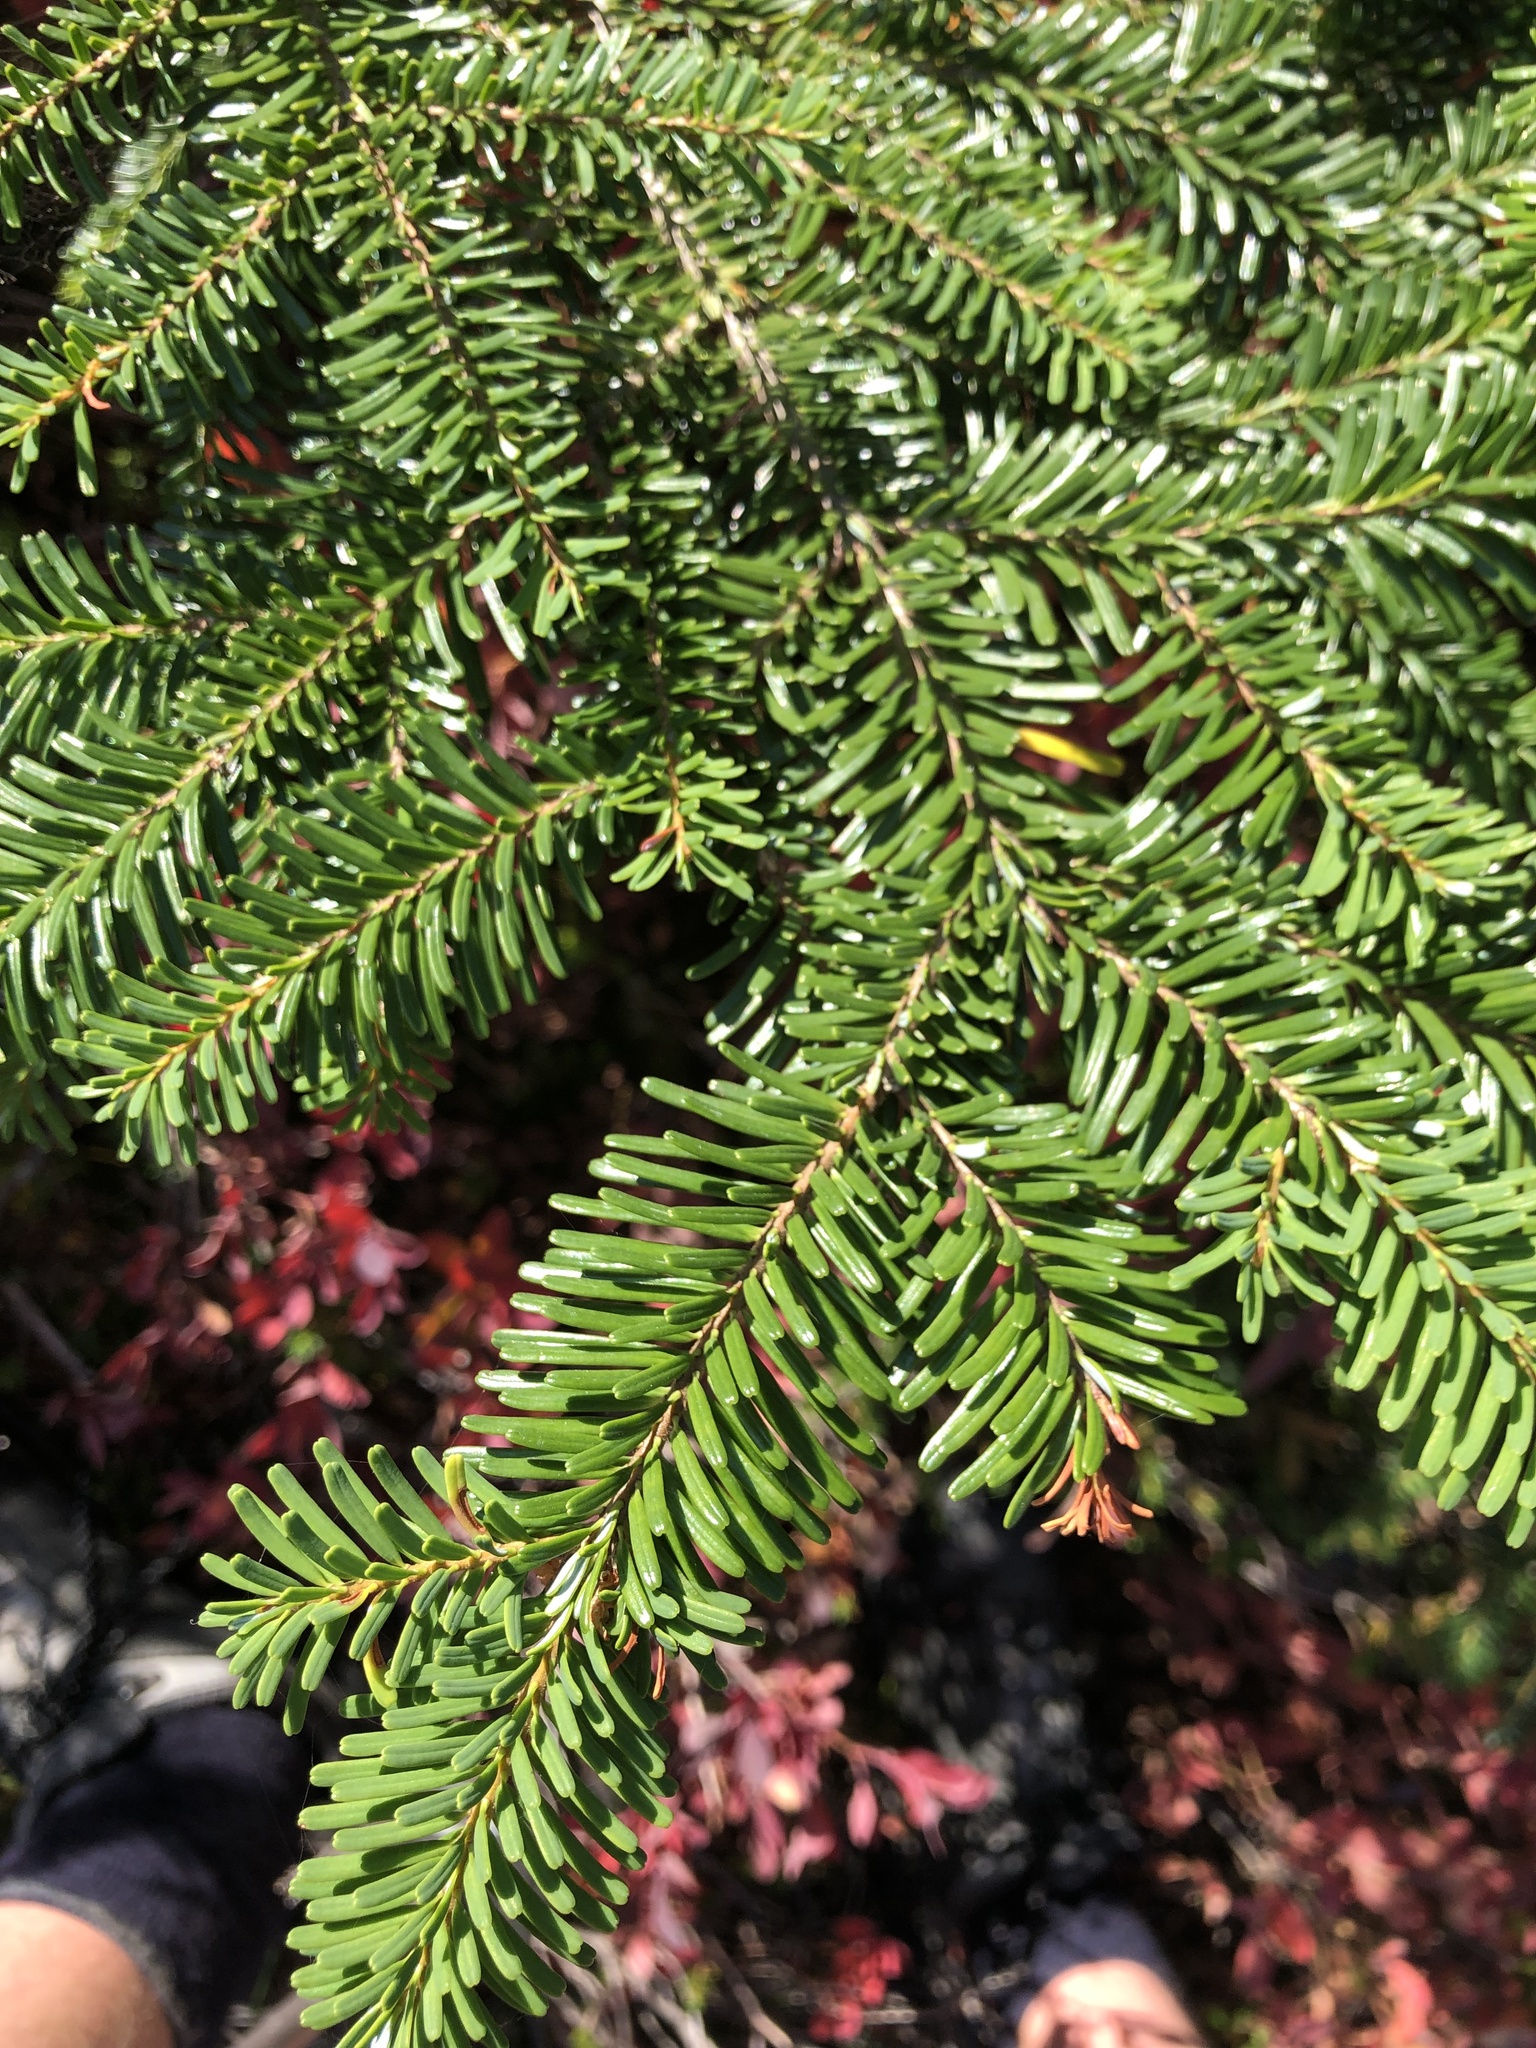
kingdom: Plantae
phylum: Tracheophyta
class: Pinopsida
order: Pinales
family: Pinaceae
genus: Abies
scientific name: Abies amabilis
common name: Pacific silver fir
